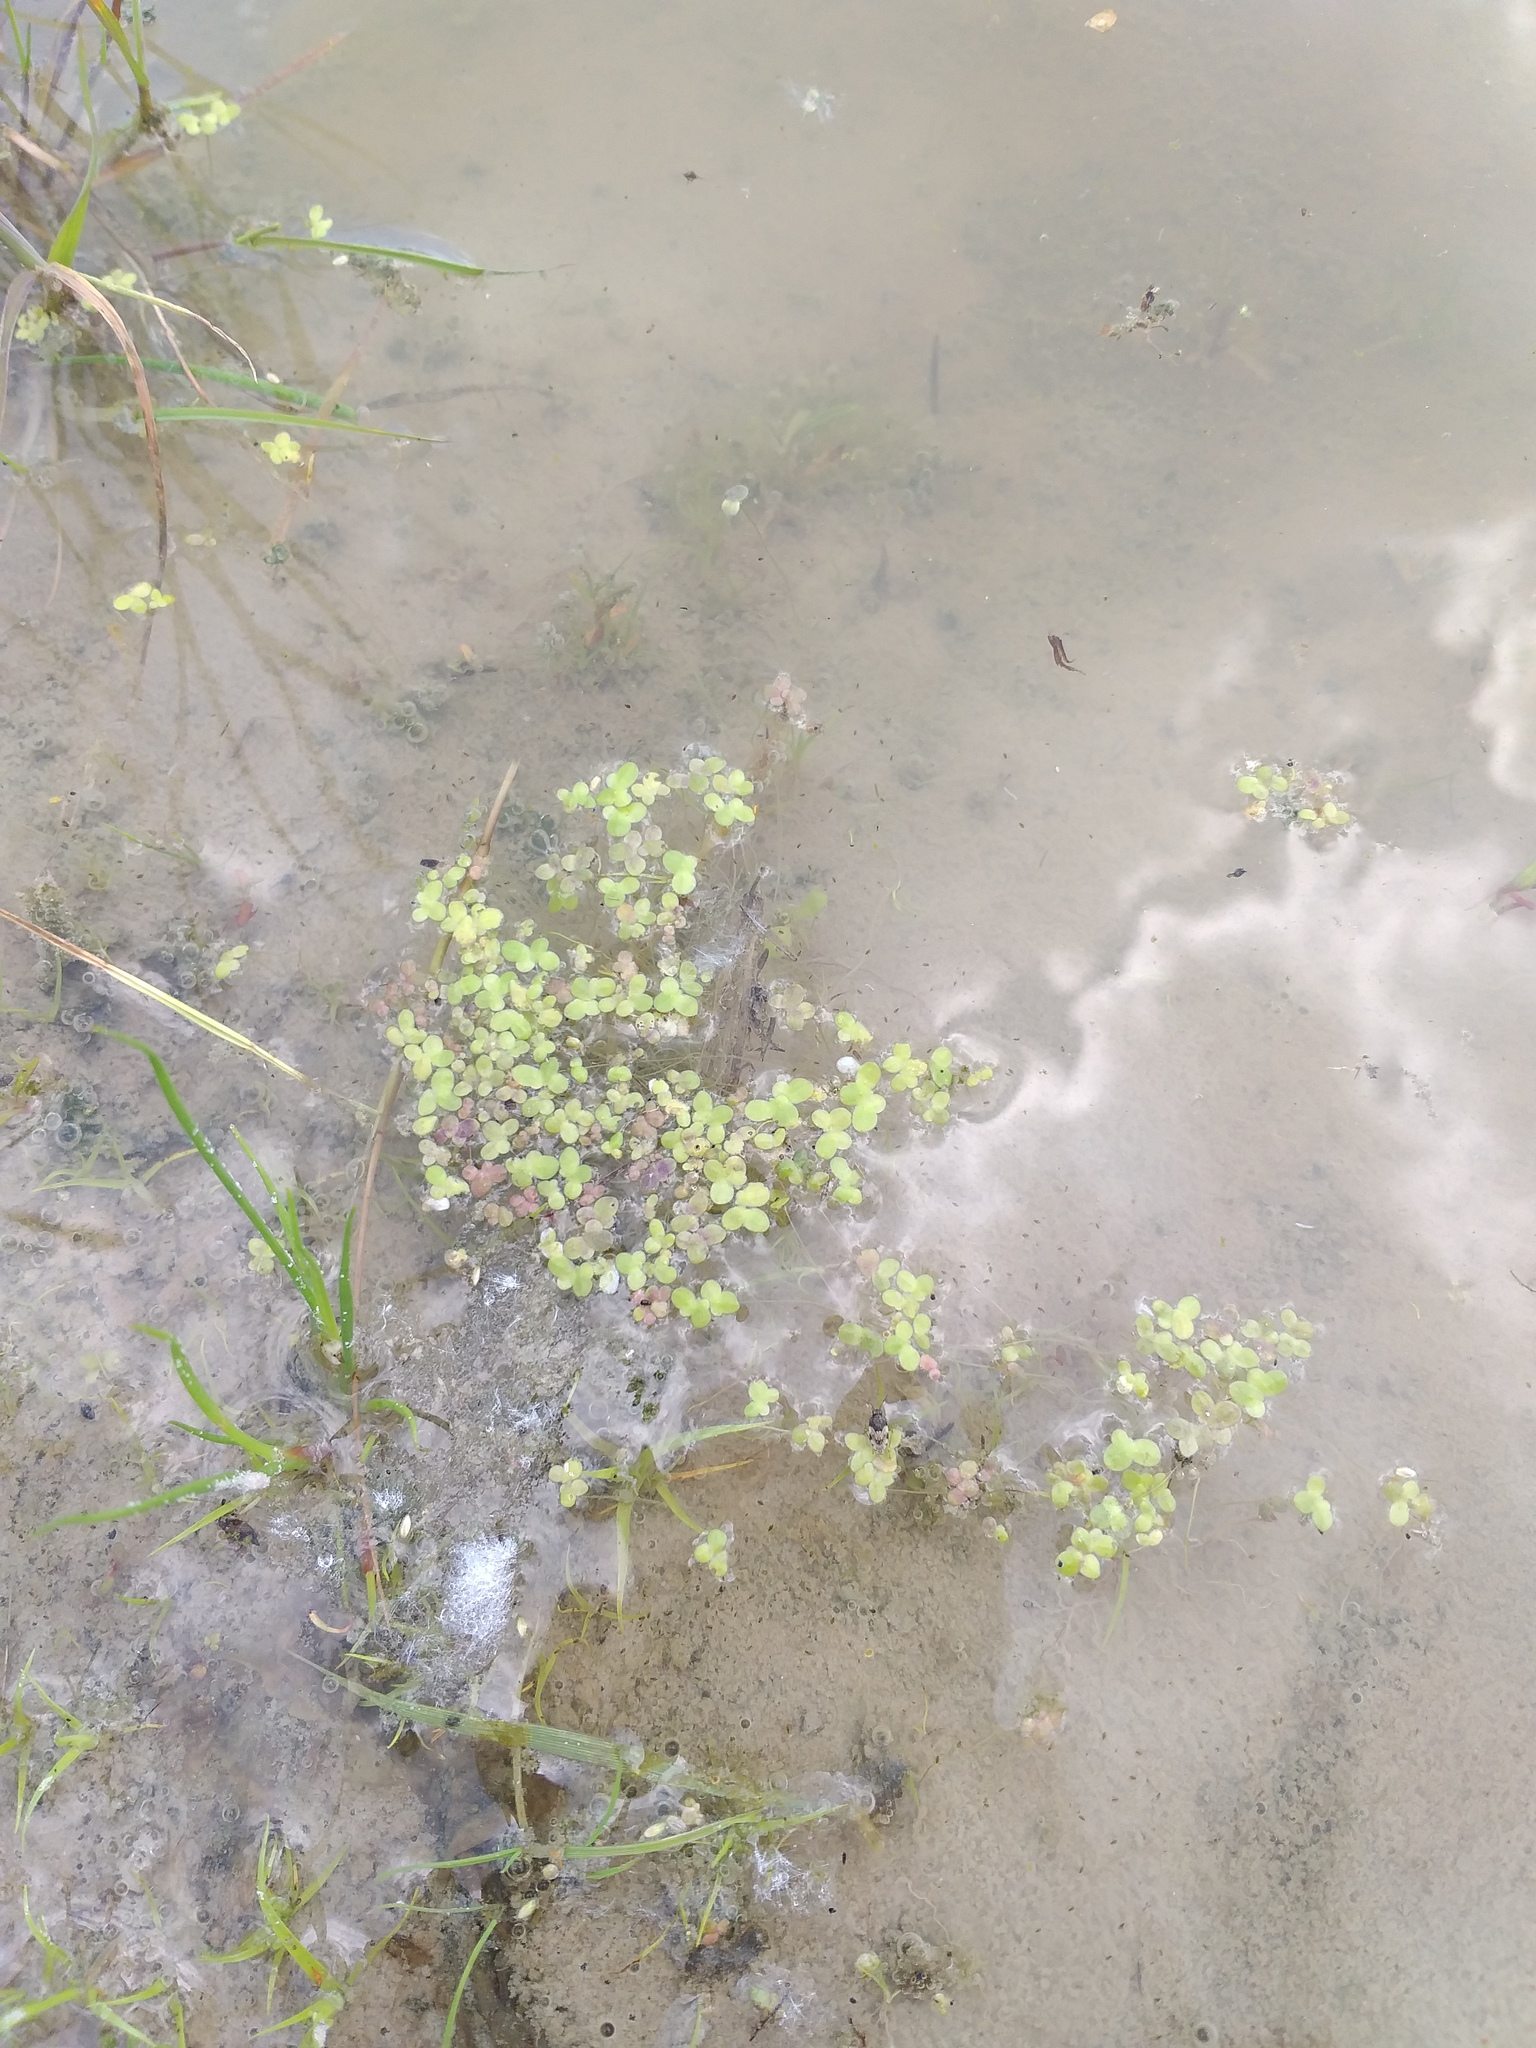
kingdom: Plantae
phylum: Tracheophyta
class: Liliopsida
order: Alismatales
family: Araceae
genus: Lemna
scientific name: Lemna minor
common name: Common duckweed
